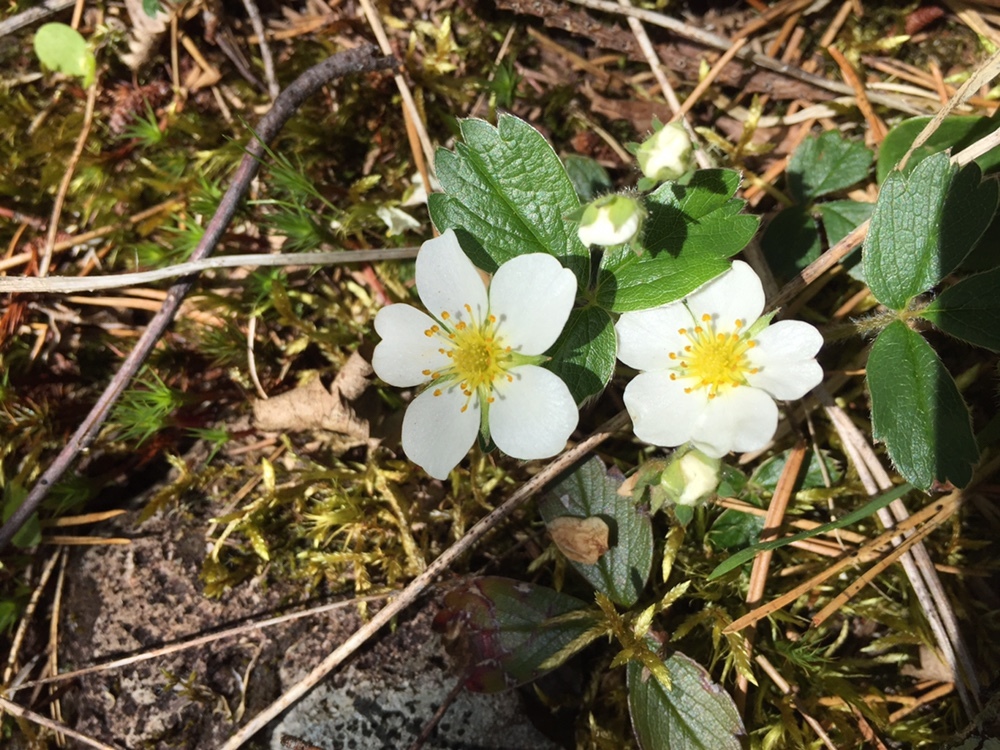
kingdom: Plantae
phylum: Tracheophyta
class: Magnoliopsida
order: Rosales
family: Rosaceae
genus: Fragaria
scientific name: Fragaria chiloensis
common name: Beach strawberry
